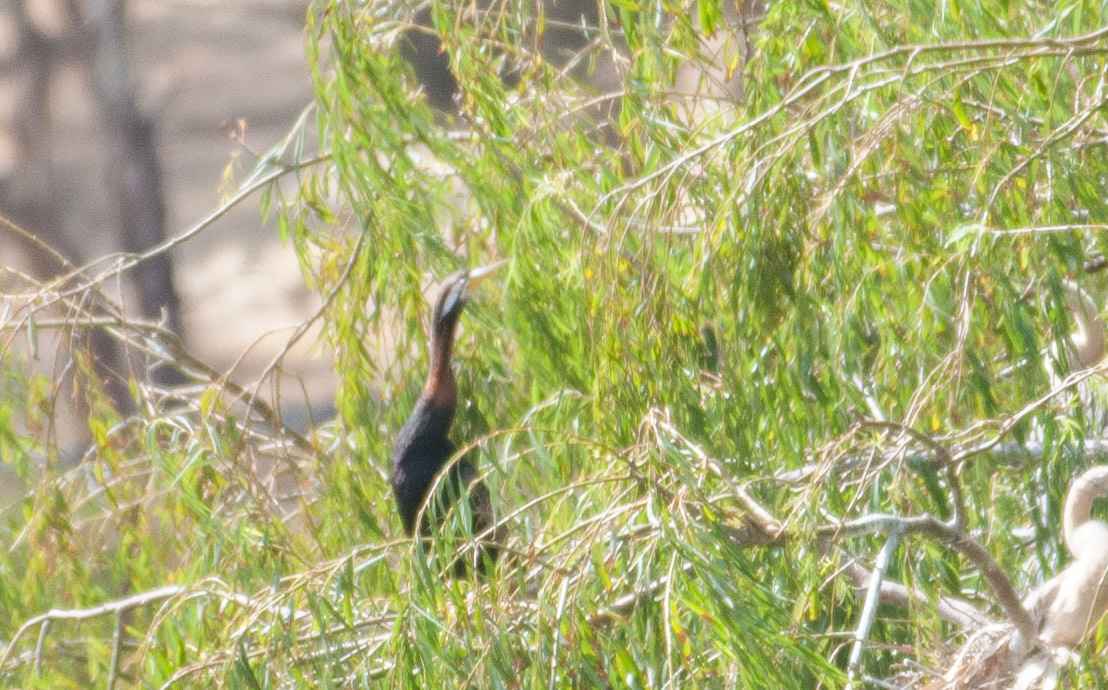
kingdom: Animalia
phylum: Chordata
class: Aves
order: Suliformes
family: Anhingidae
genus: Anhinga
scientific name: Anhinga novaehollandiae
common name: Australasian darter
